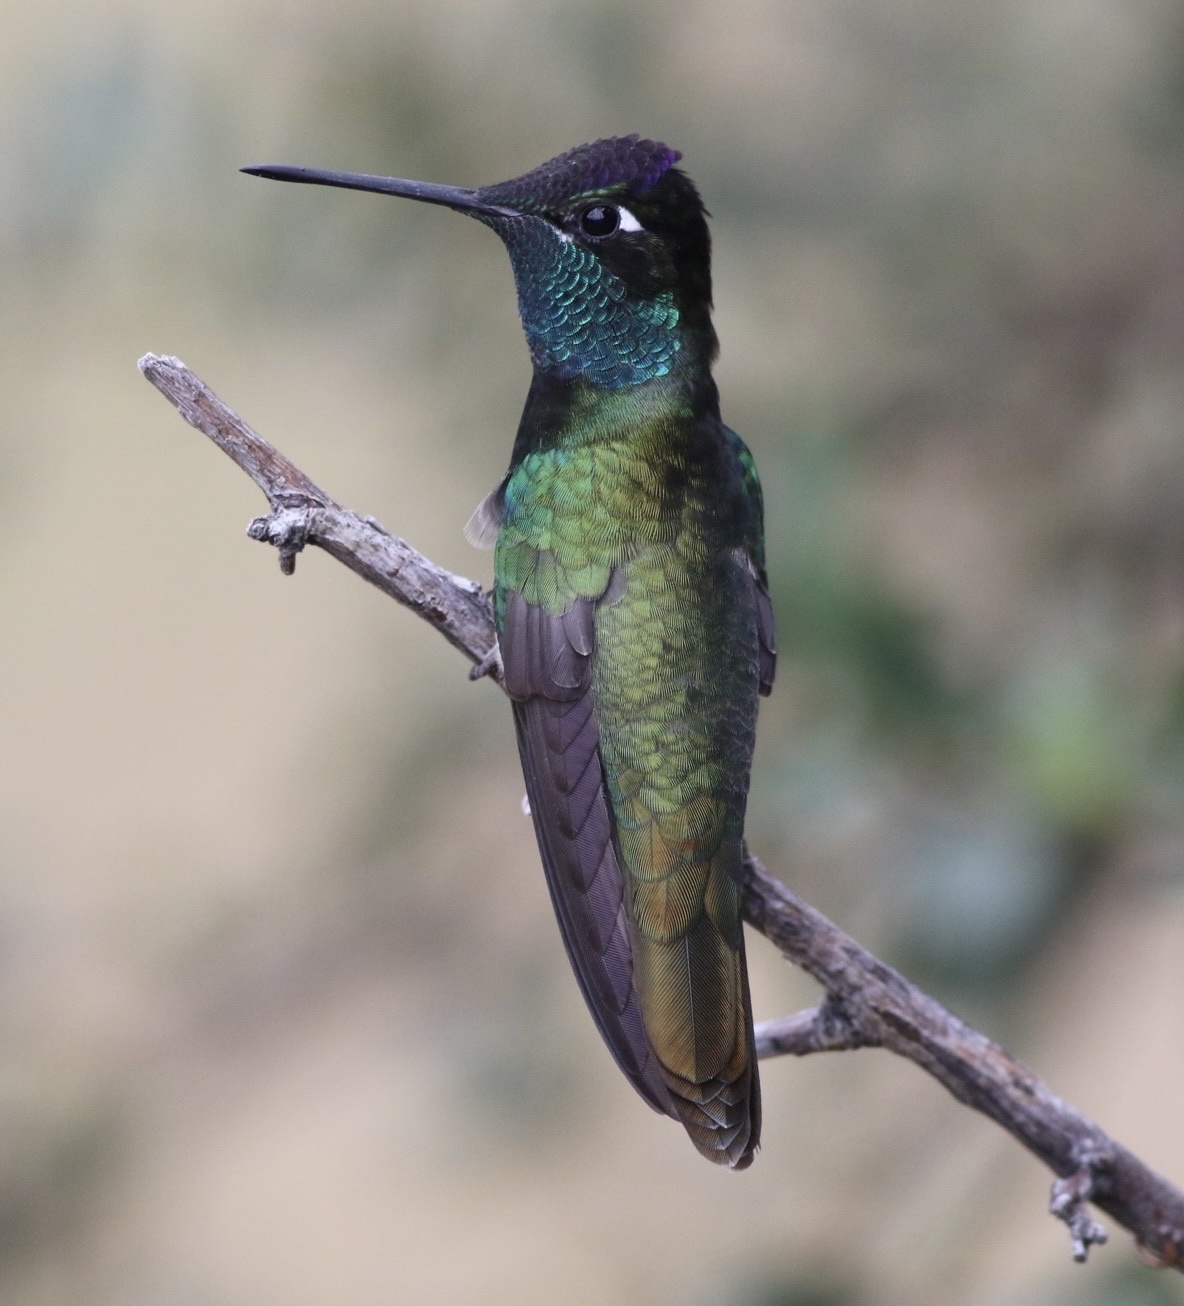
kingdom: Animalia
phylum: Chordata
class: Aves
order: Apodiformes
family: Trochilidae
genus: Eugenes
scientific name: Eugenes fulgens
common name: Magnificent hummingbird
